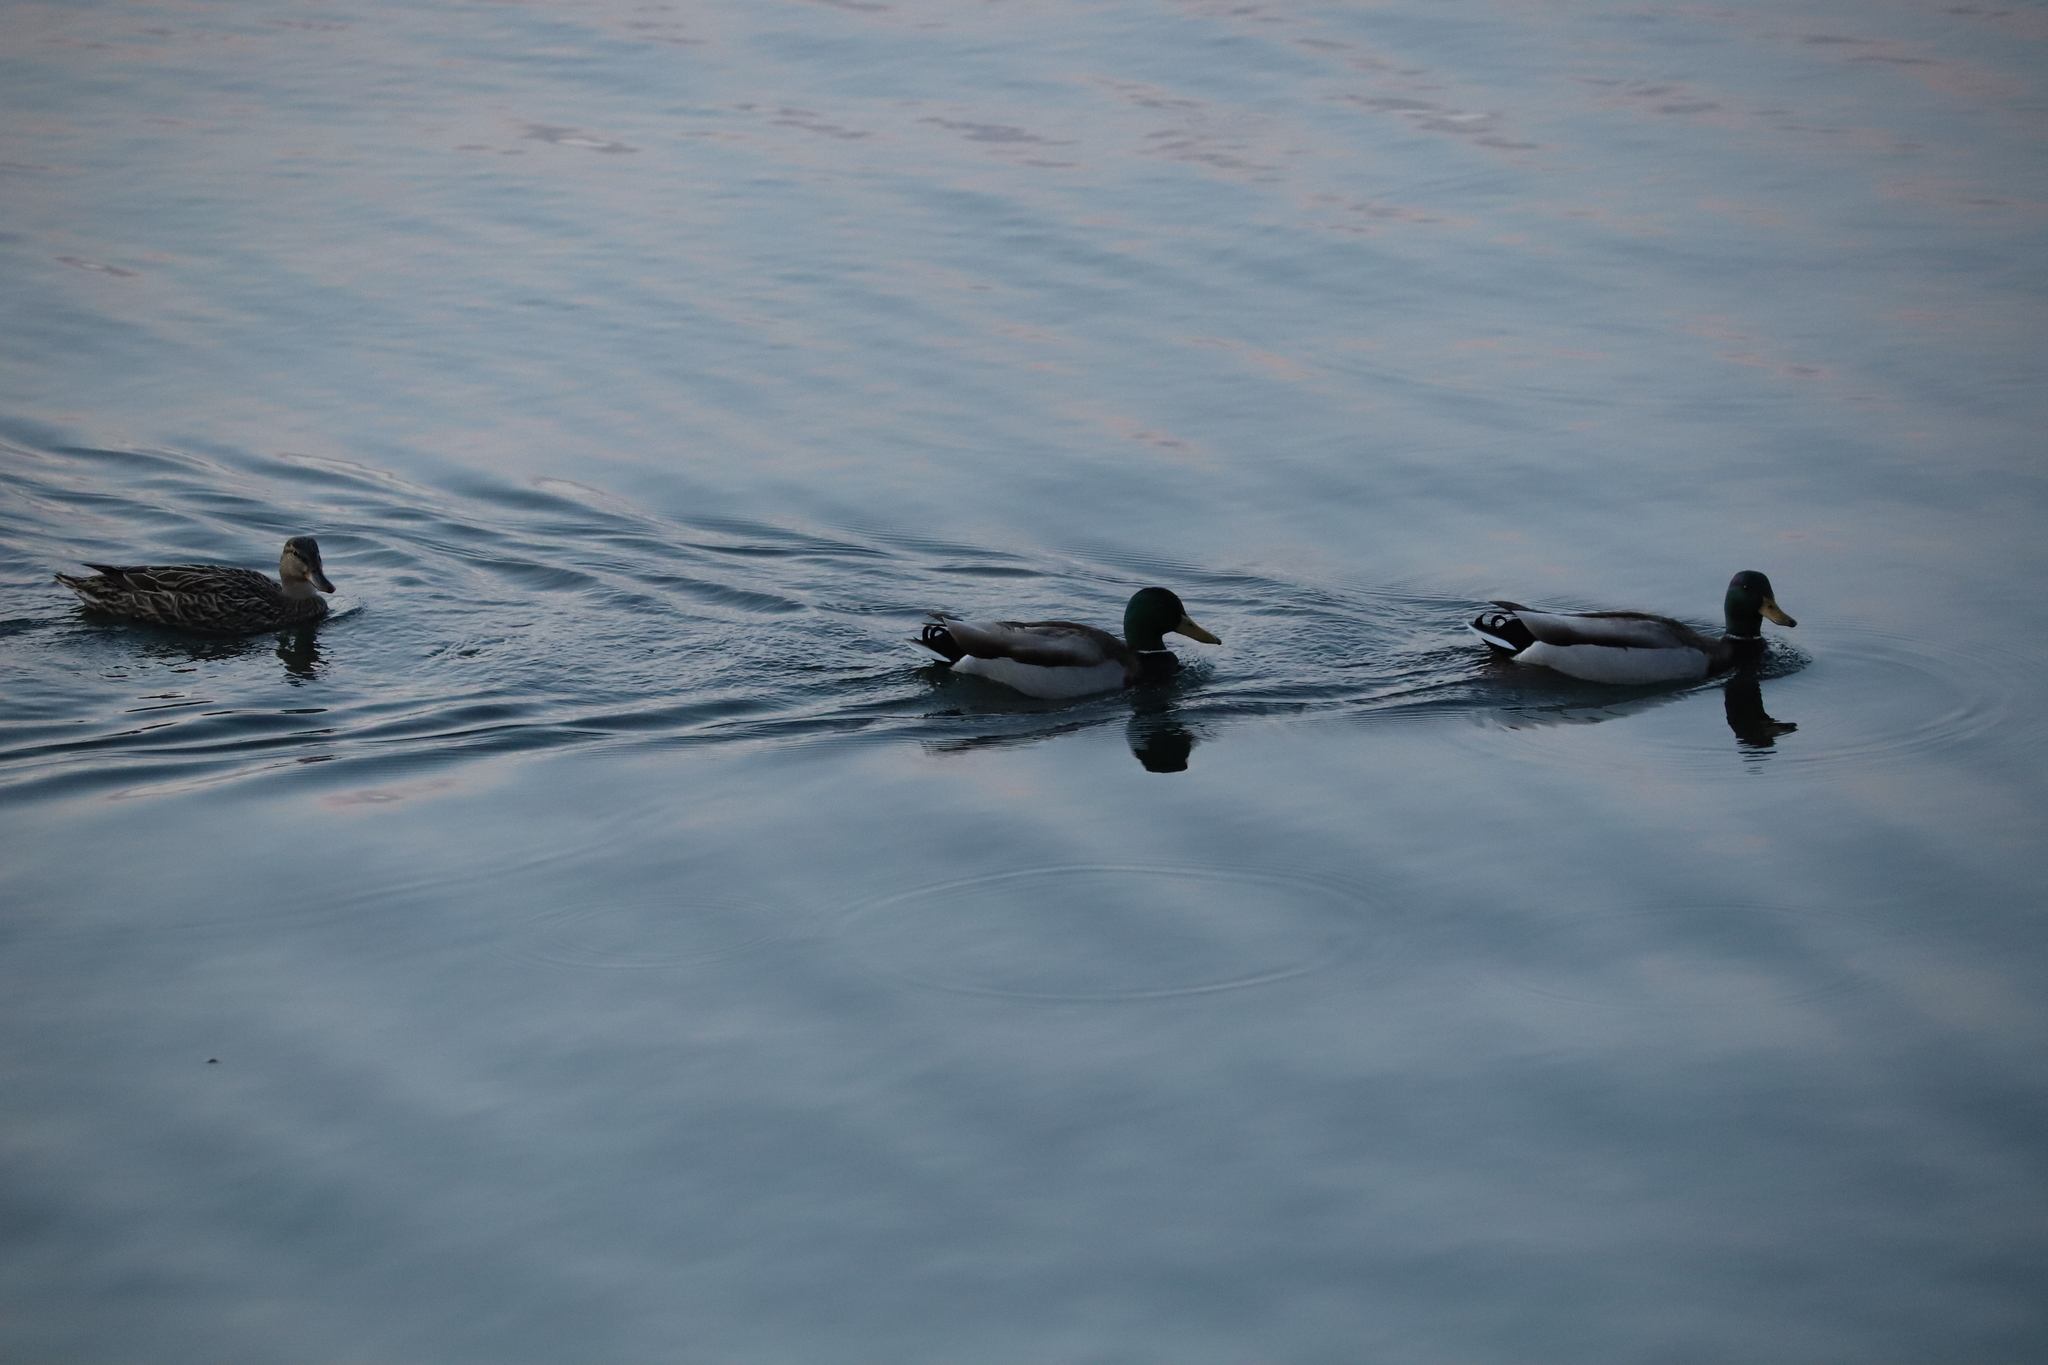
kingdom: Animalia
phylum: Chordata
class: Aves
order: Anseriformes
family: Anatidae
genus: Anas
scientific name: Anas platyrhynchos
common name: Mallard
